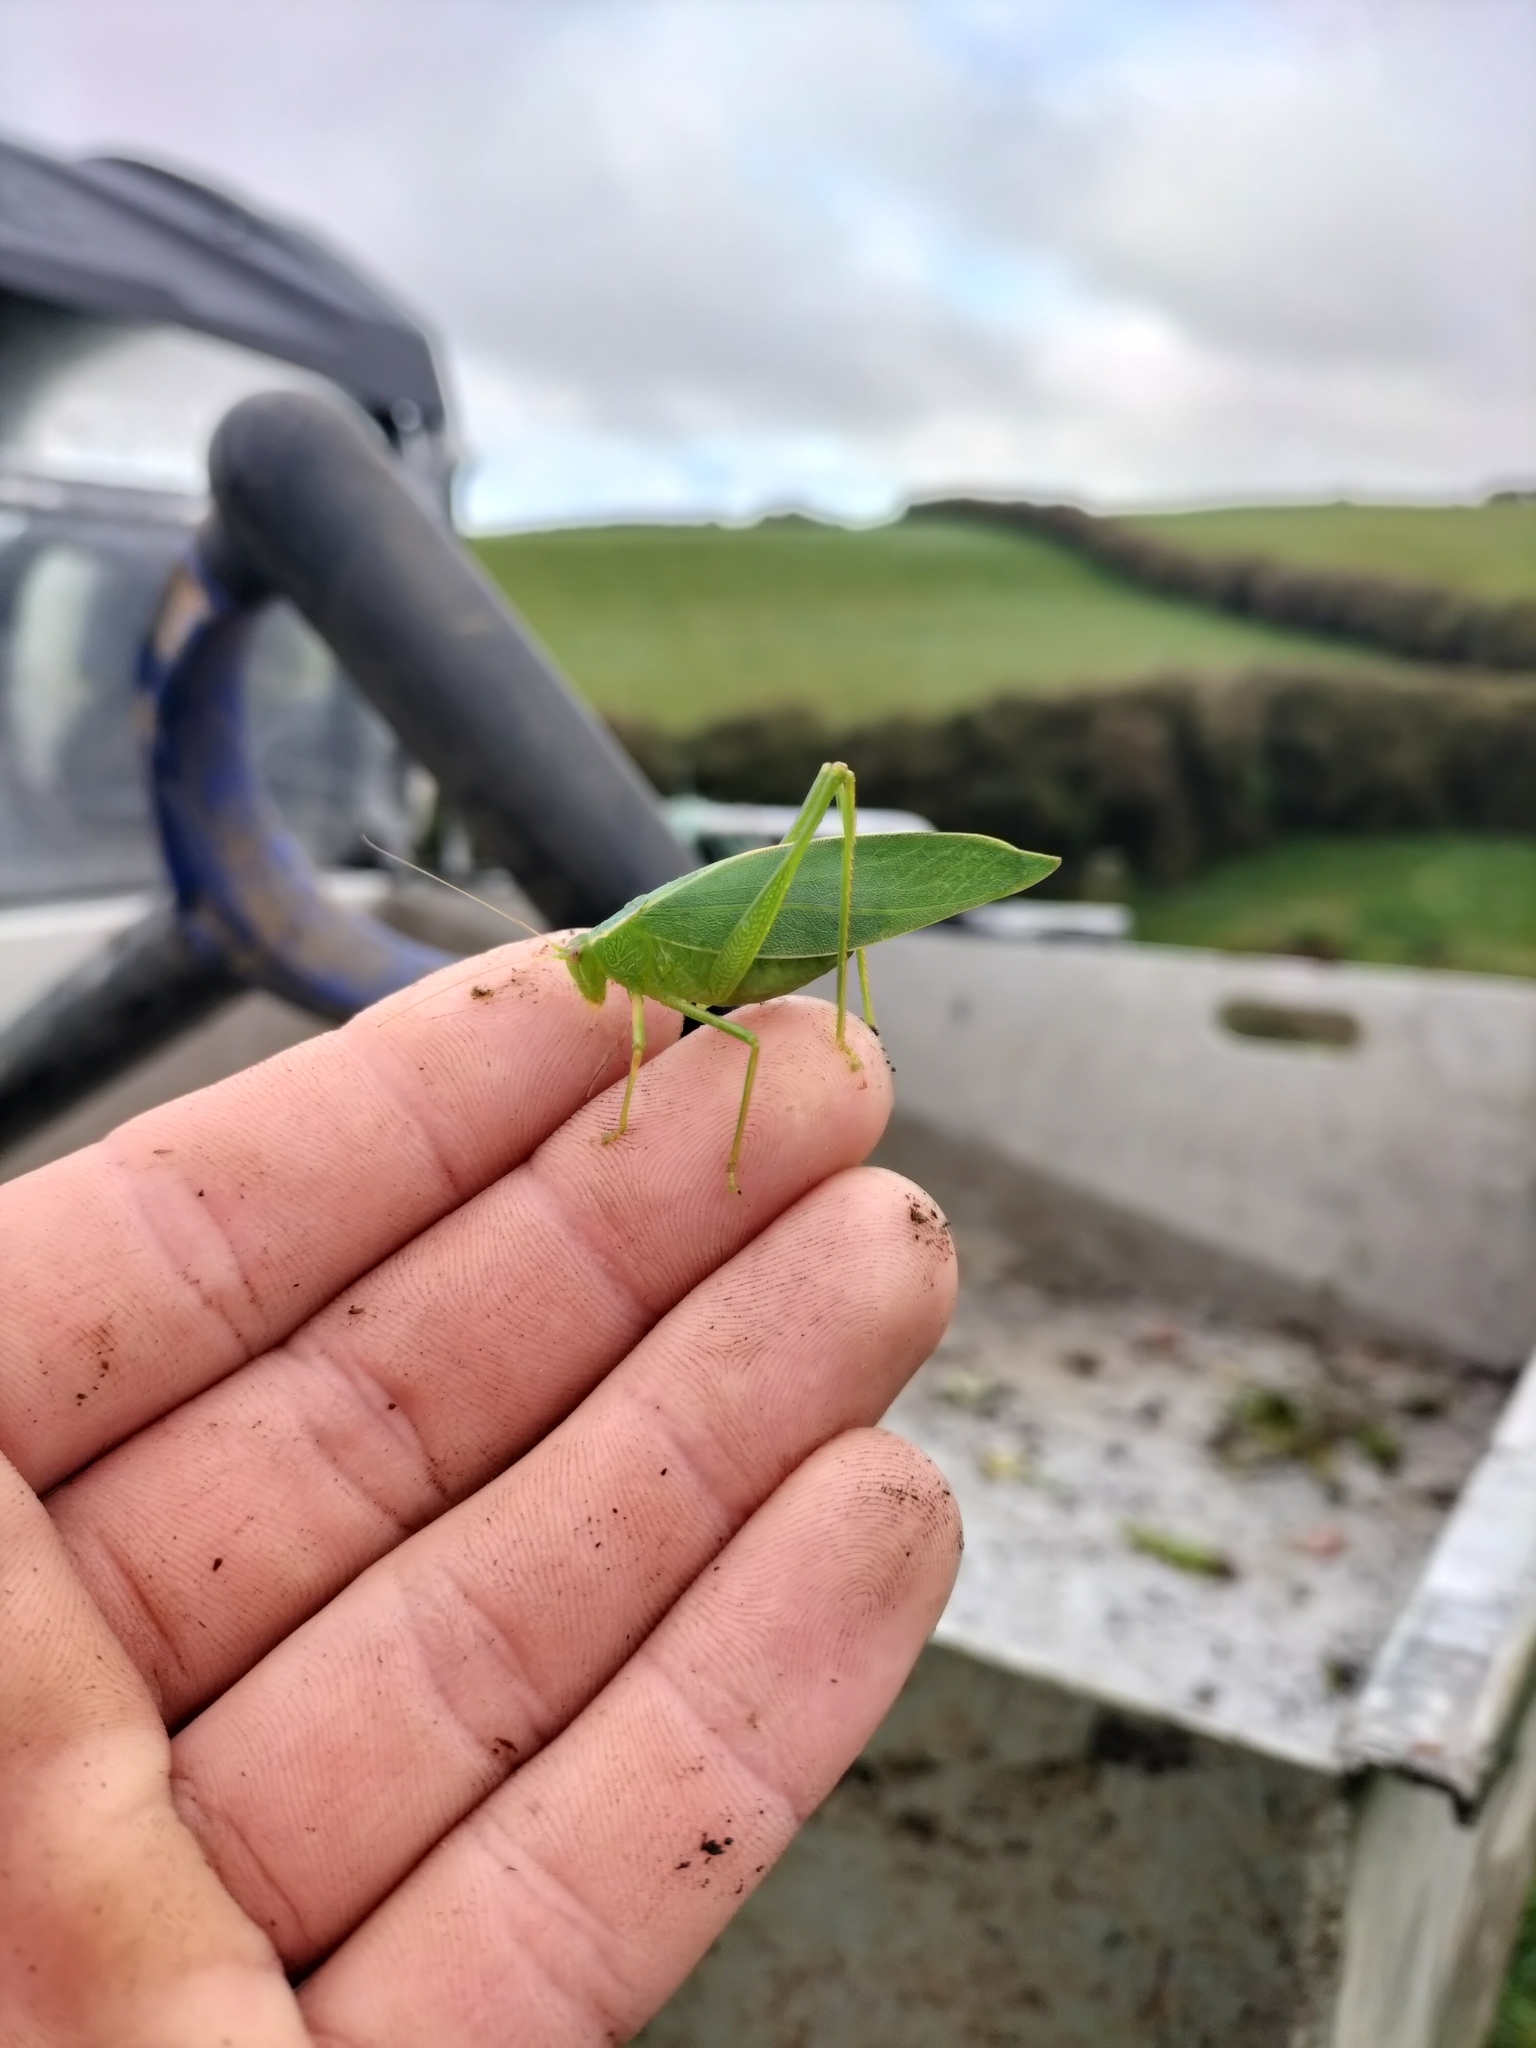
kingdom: Animalia
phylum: Arthropoda
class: Insecta
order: Orthoptera
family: Tettigoniidae
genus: Caedicia
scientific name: Caedicia simplex
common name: Common garden katydid
